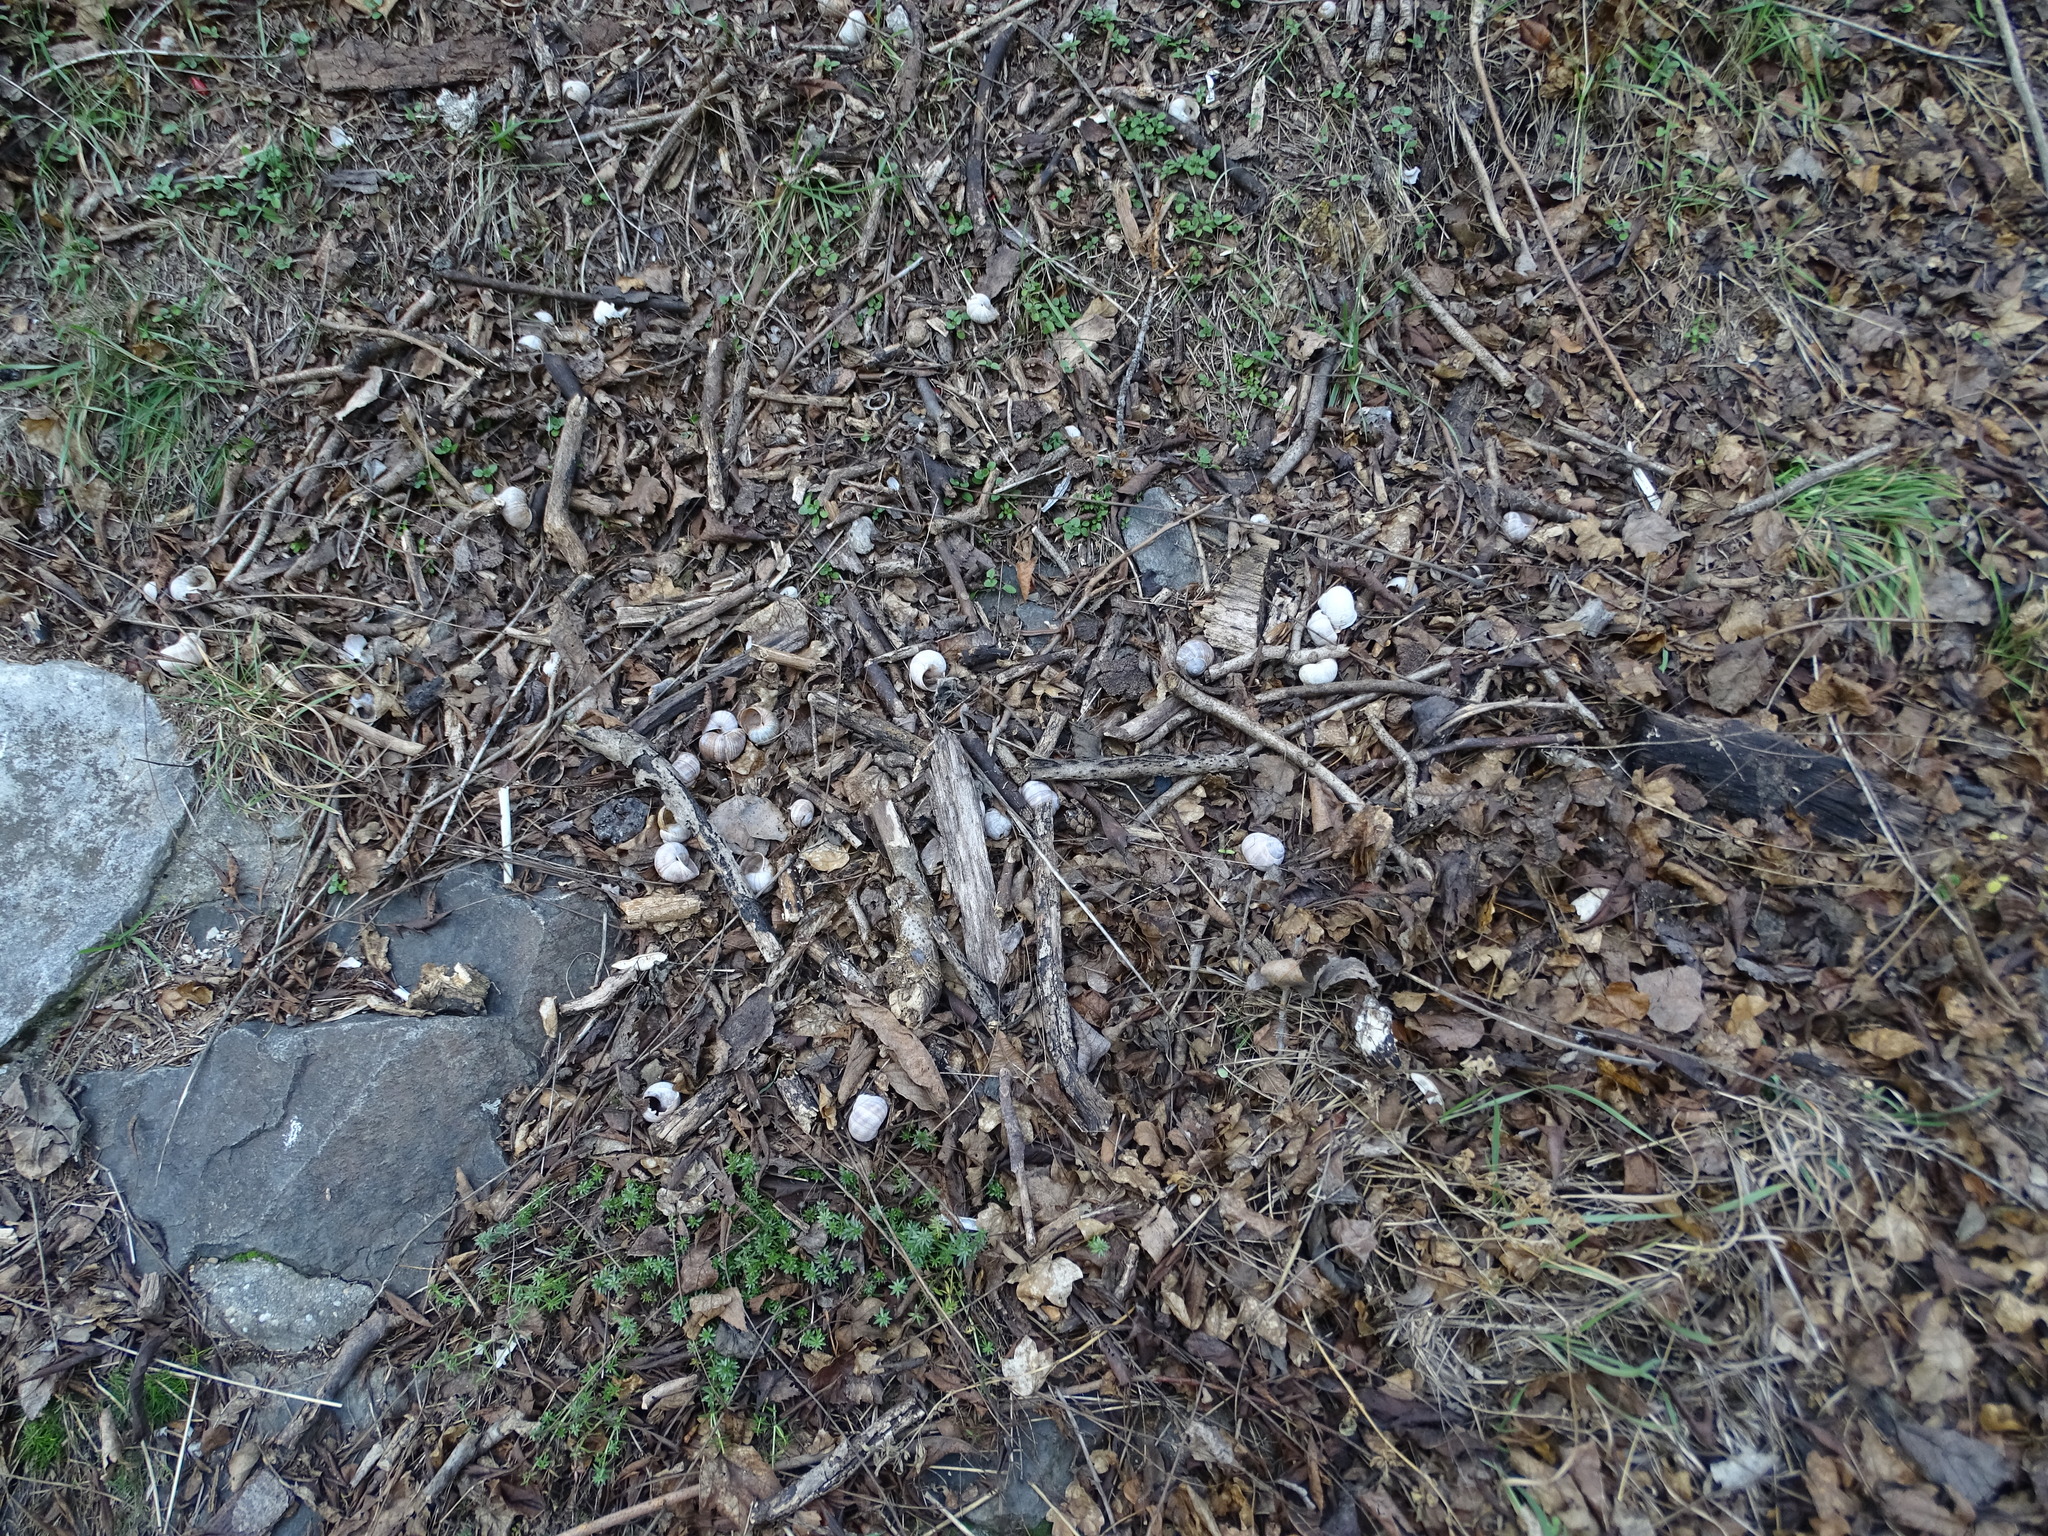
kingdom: Animalia
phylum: Mollusca
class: Gastropoda
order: Stylommatophora
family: Helicidae
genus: Helix
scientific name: Helix pomatia
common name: Roman snail
